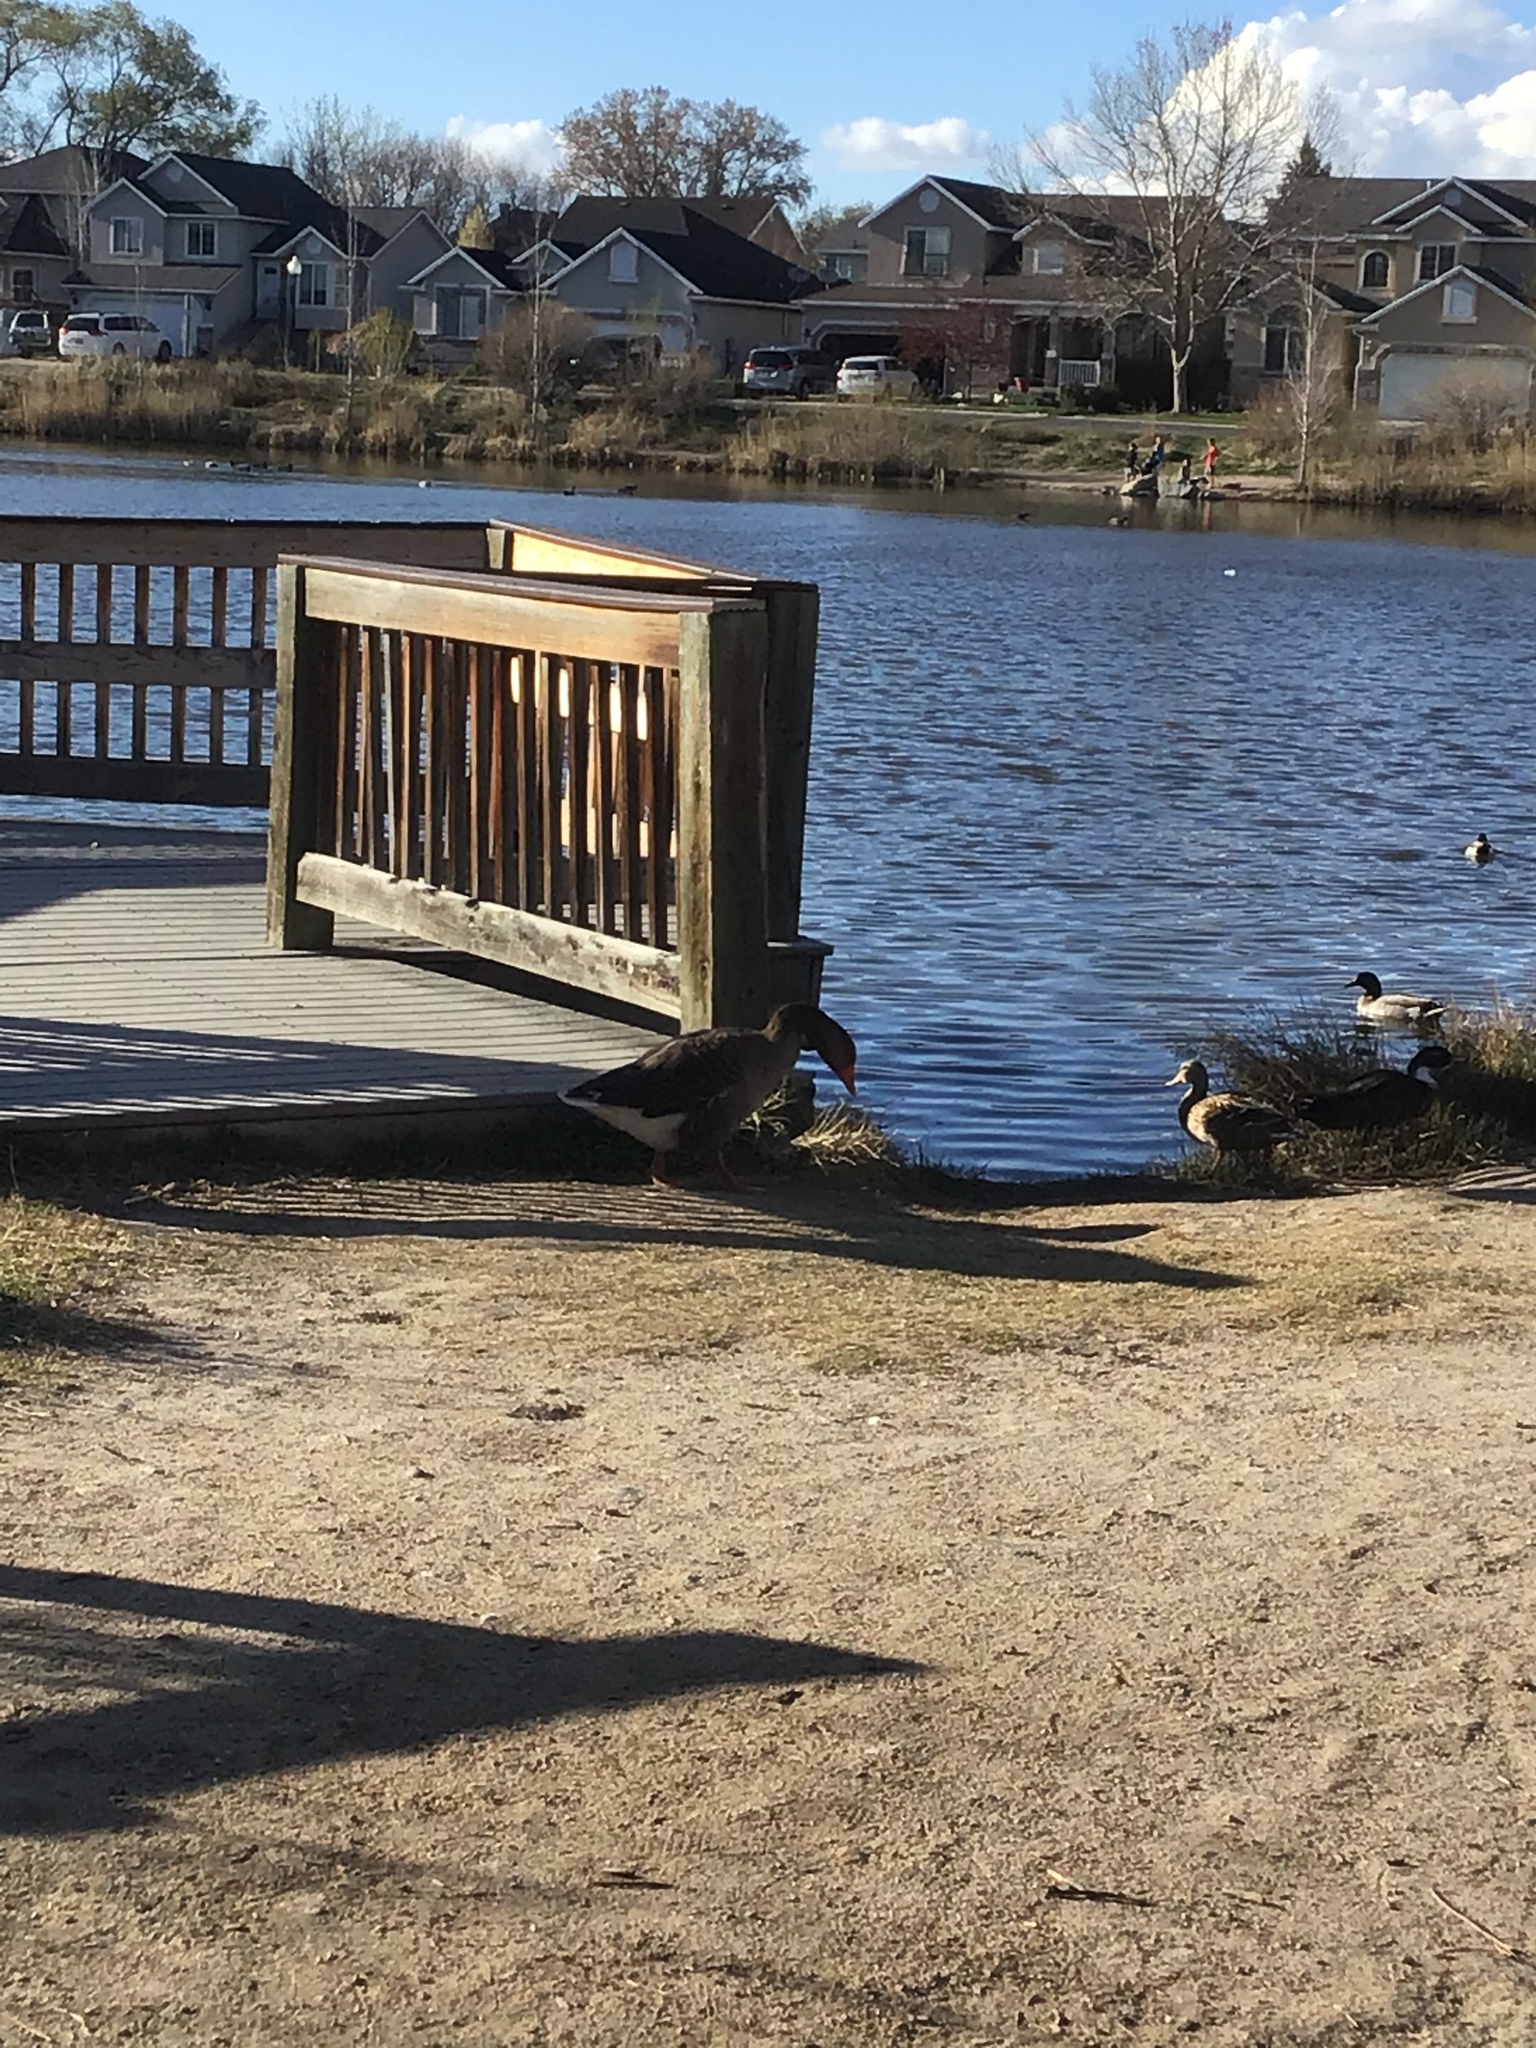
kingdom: Animalia
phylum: Chordata
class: Aves
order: Anseriformes
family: Anatidae
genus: Anser
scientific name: Anser anser
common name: Greylag goose
